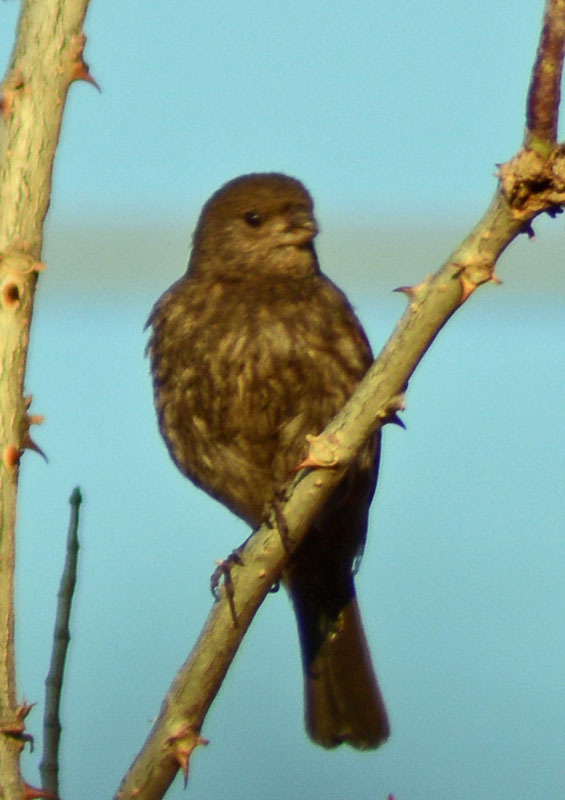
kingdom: Animalia
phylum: Chordata
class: Aves
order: Passeriformes
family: Fringillidae
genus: Haemorhous
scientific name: Haemorhous mexicanus
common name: House finch
